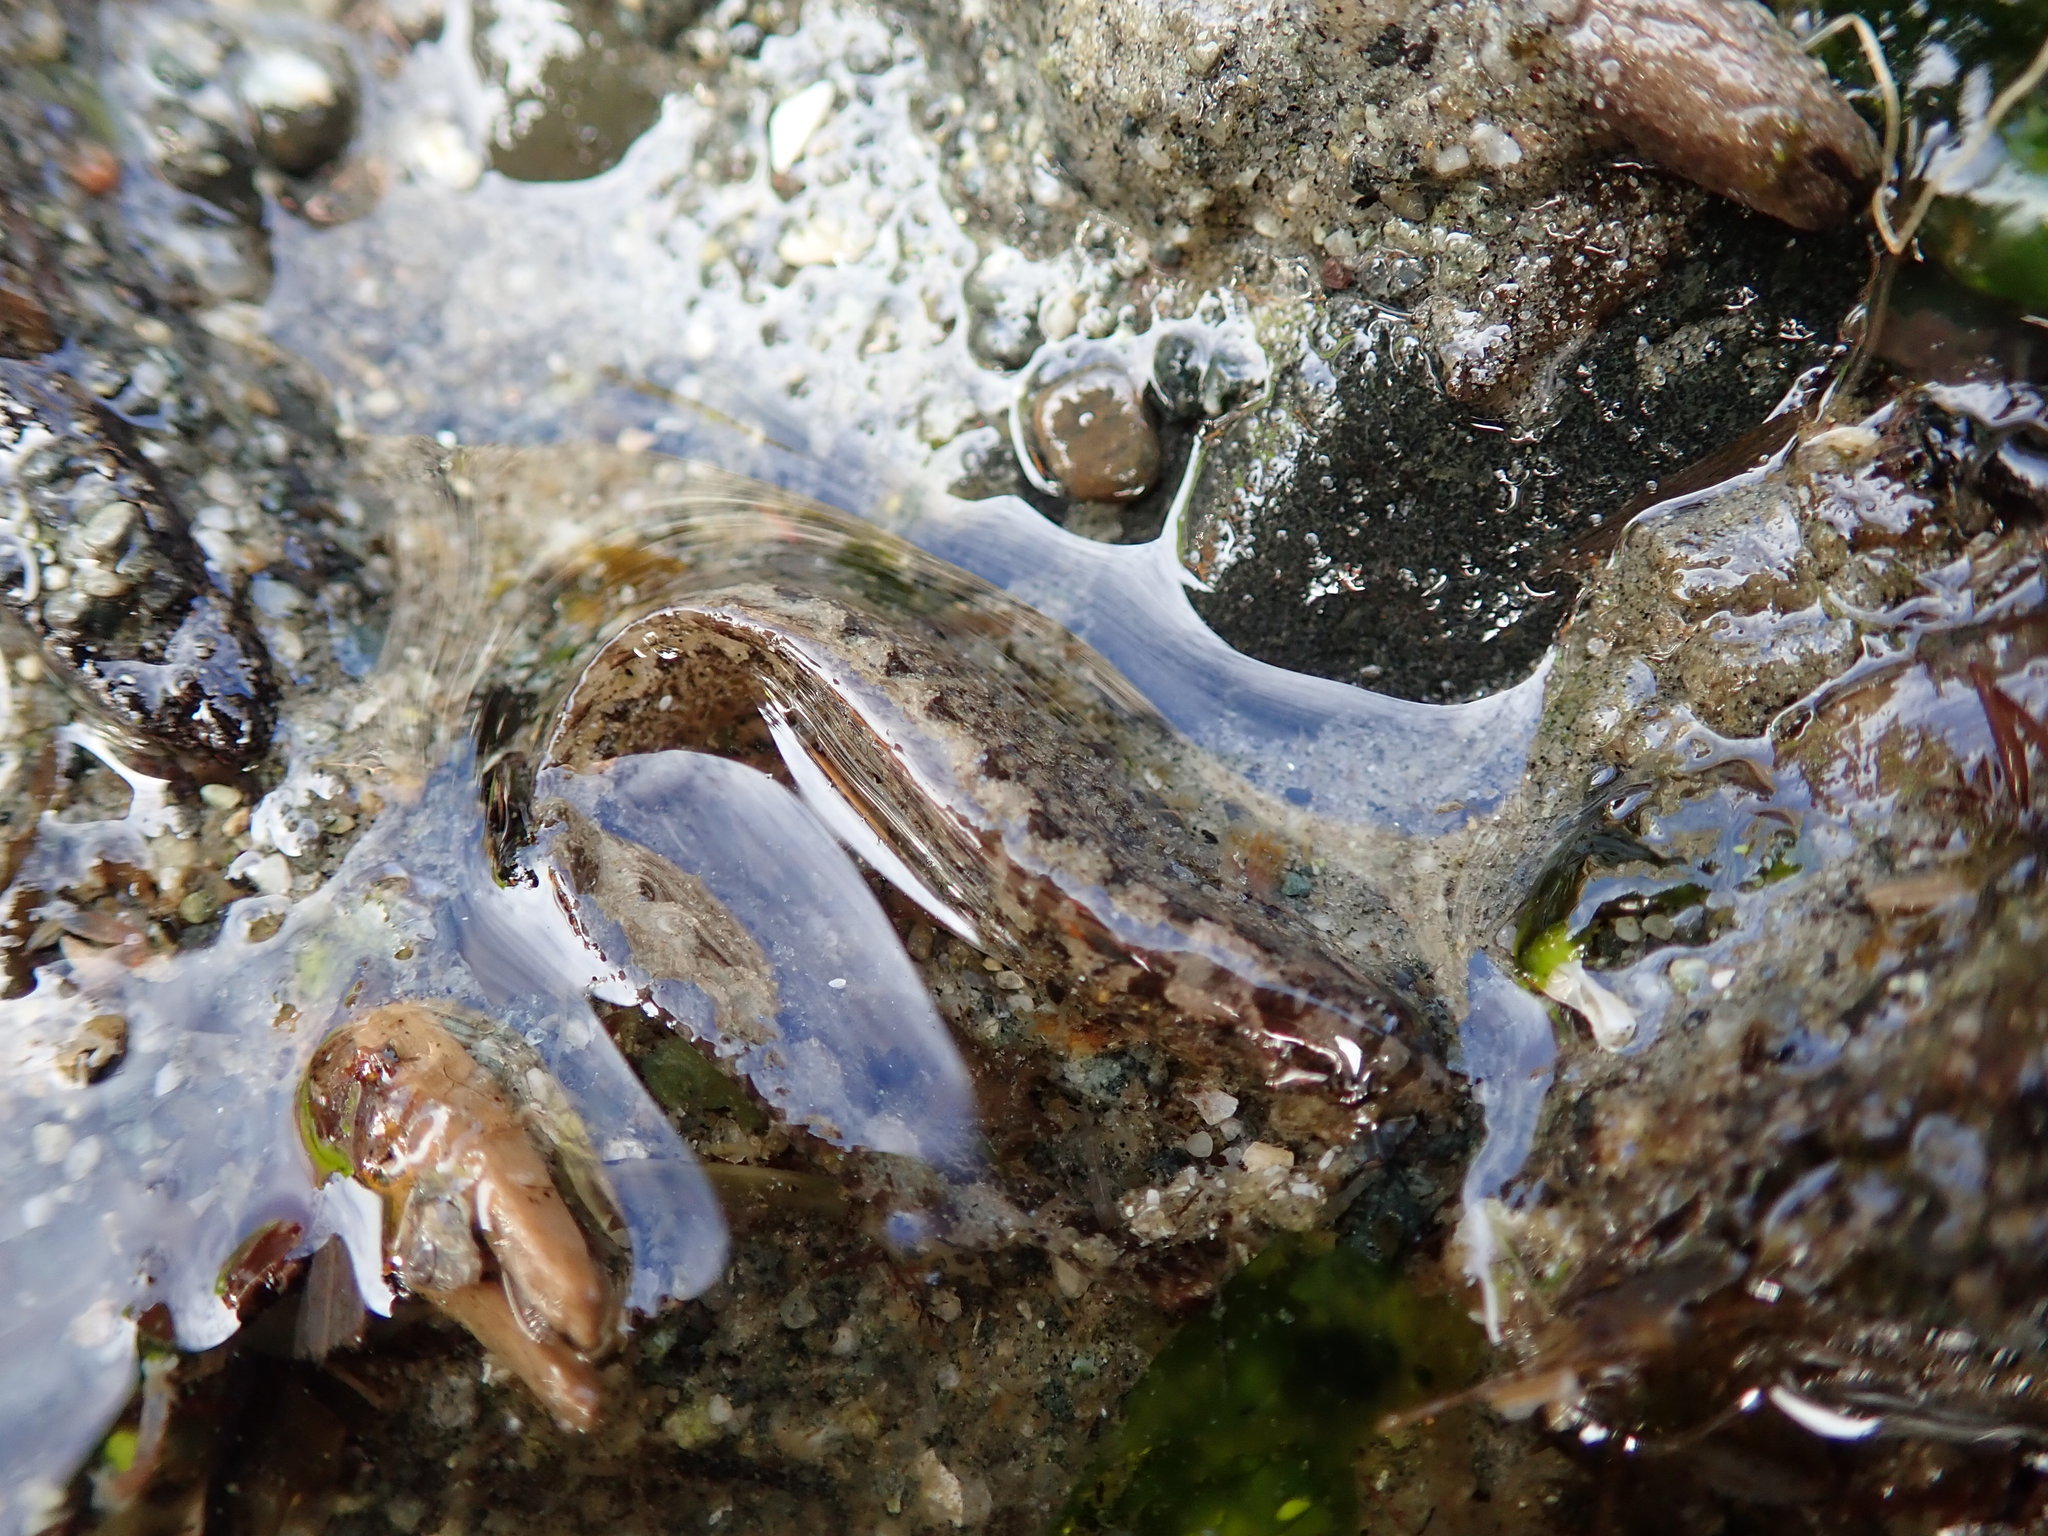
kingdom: Animalia
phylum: Chordata
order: Perciformes
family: Stichaeidae
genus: Anoplarchus
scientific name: Anoplarchus purpurescens
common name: High cockscomb
